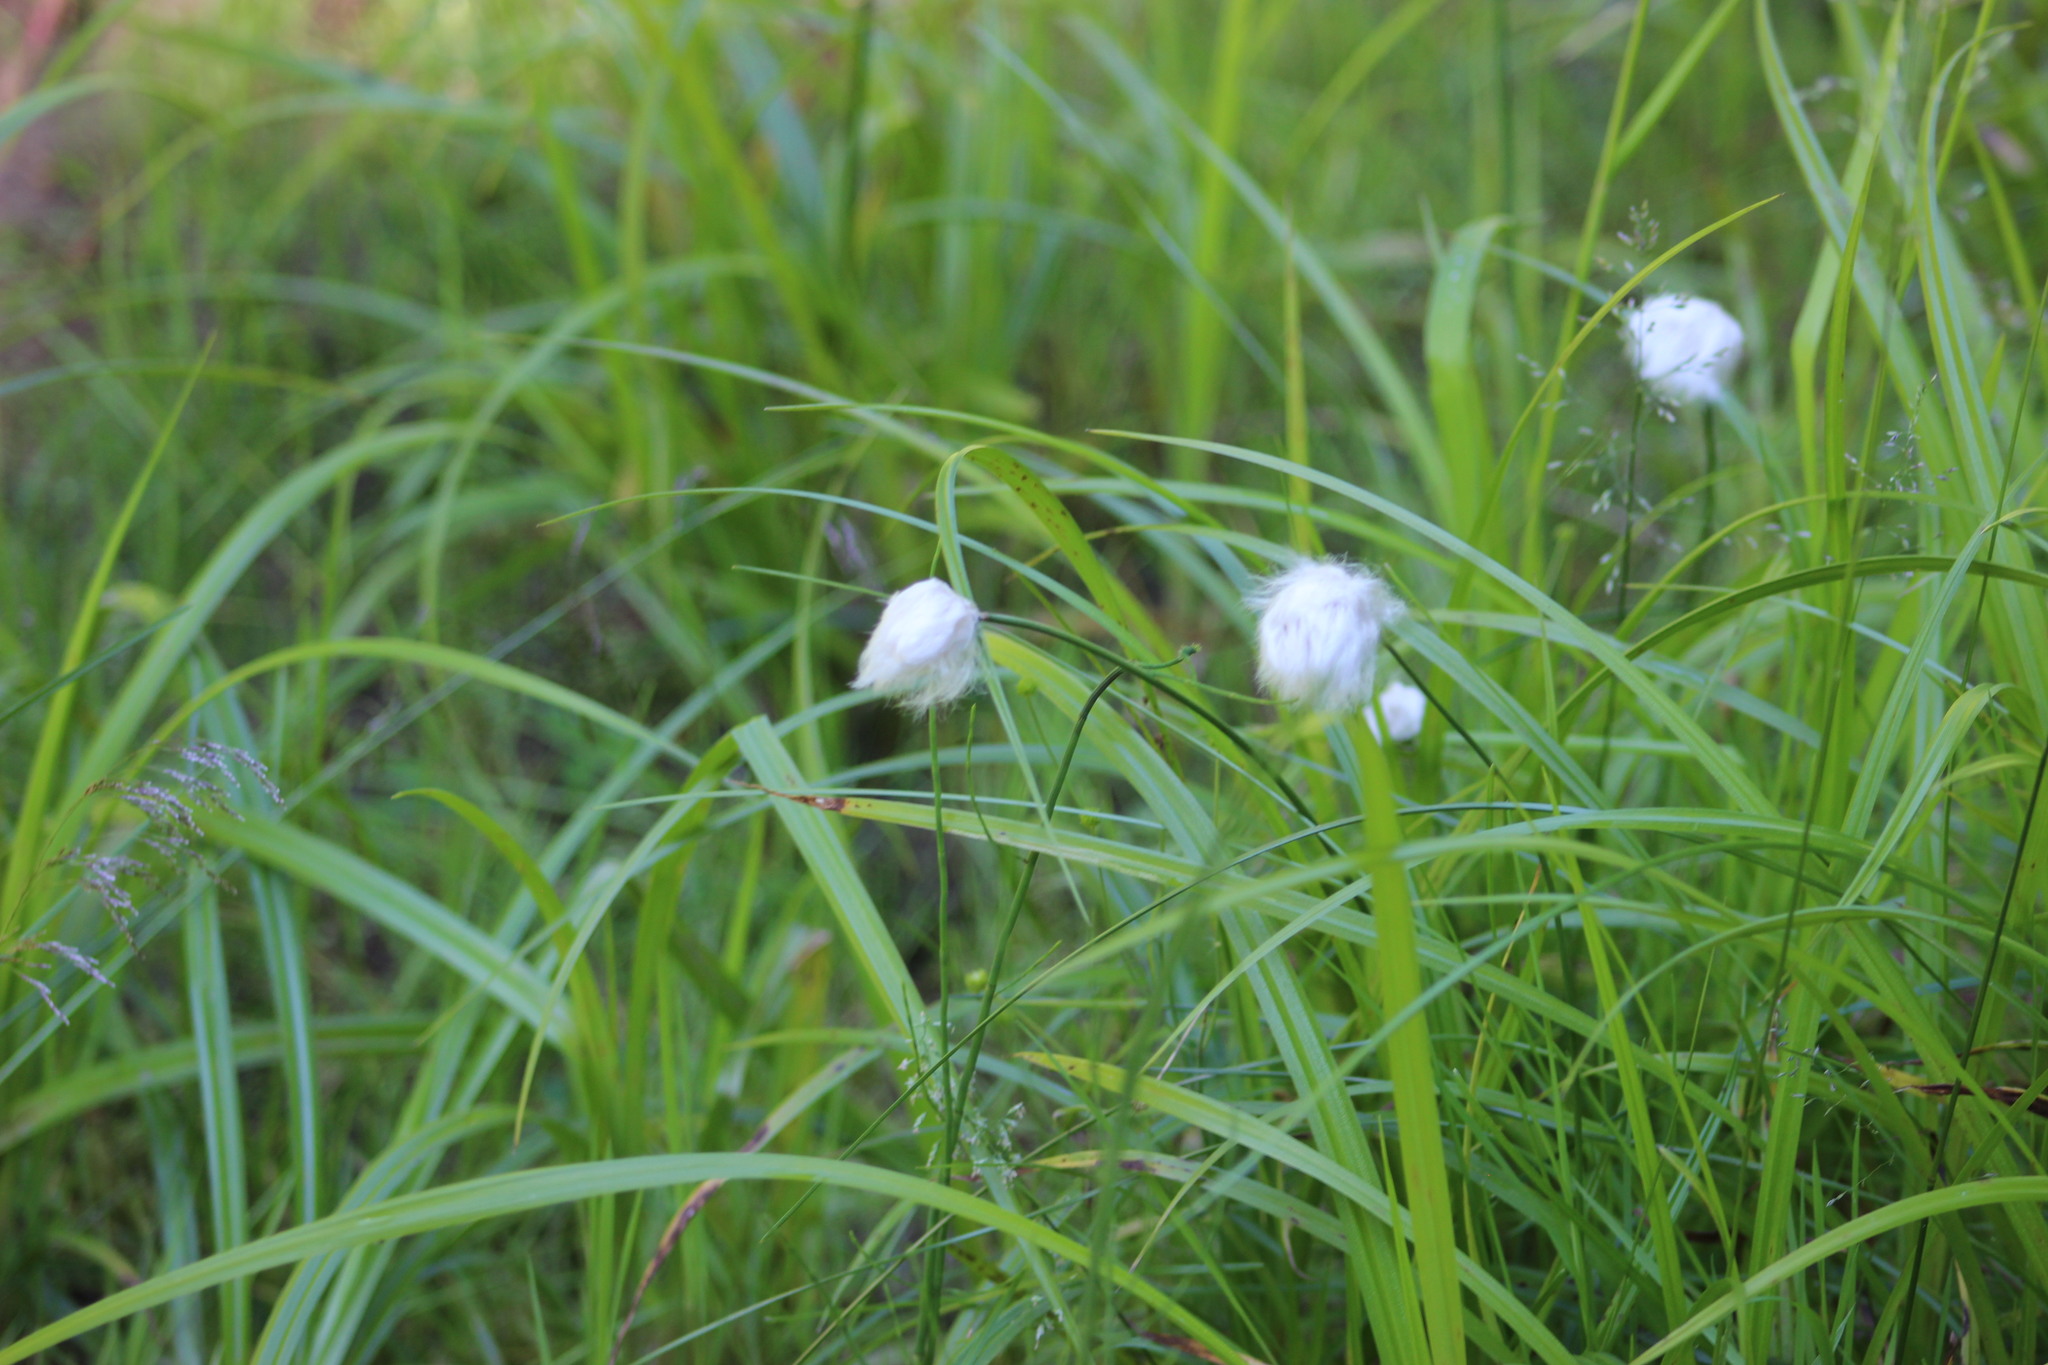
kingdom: Plantae
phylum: Tracheophyta
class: Liliopsida
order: Poales
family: Cyperaceae
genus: Eriophorum
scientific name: Eriophorum chamissonis
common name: Chamisso's cottongrass
